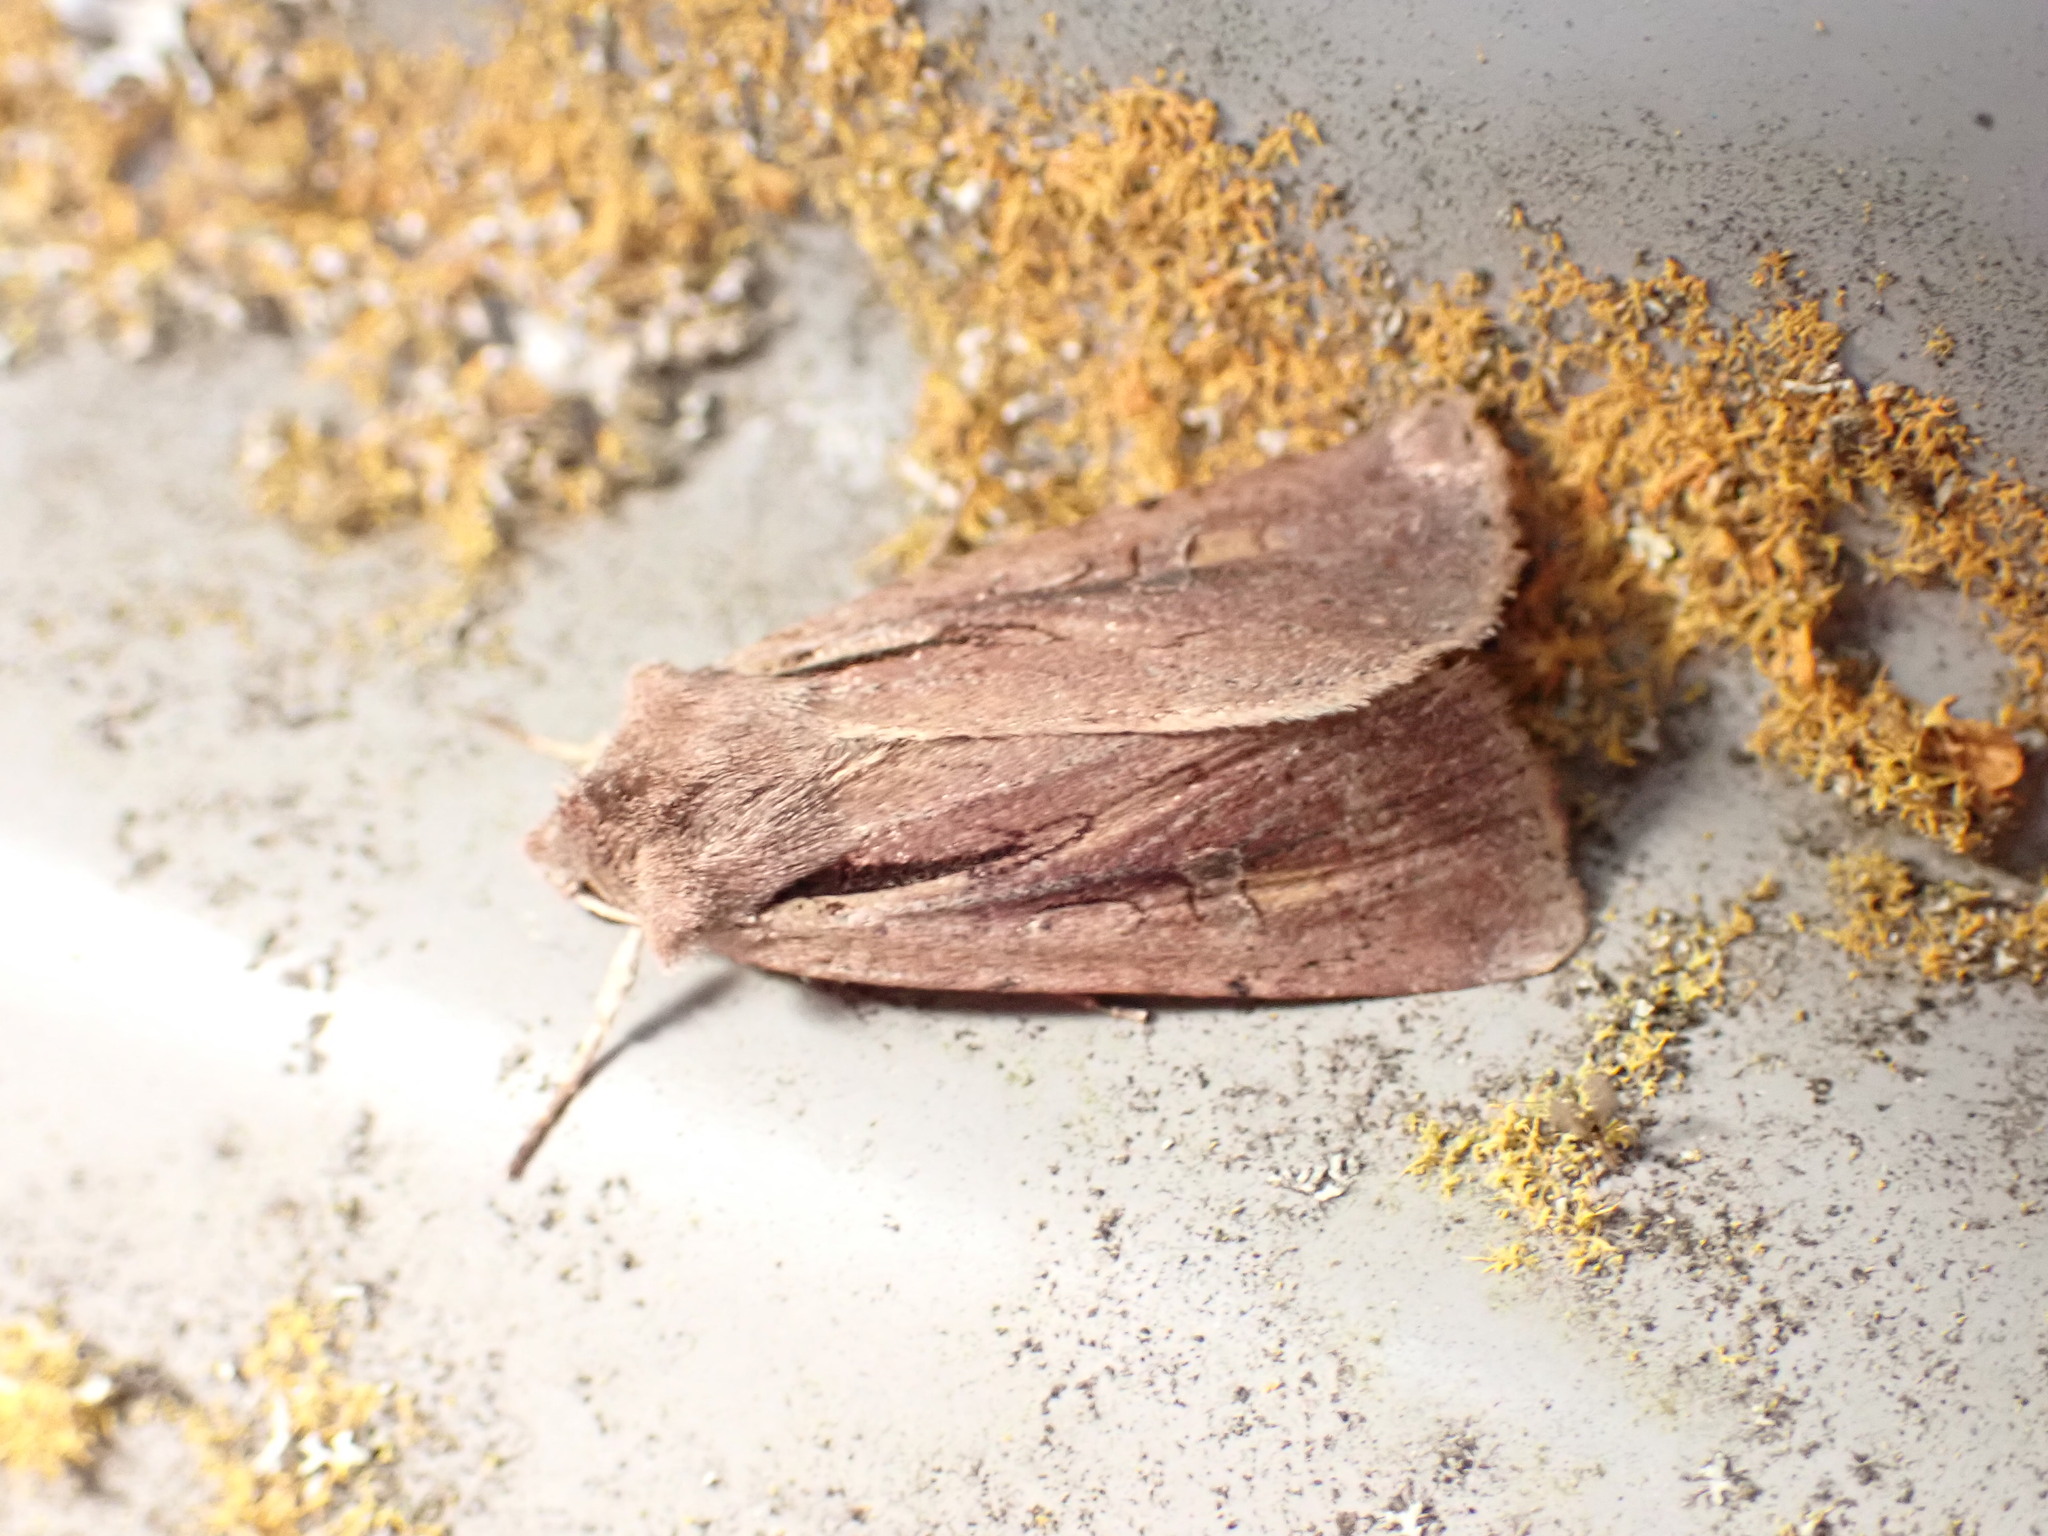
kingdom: Animalia
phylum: Arthropoda
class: Insecta
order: Lepidoptera
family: Noctuidae
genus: Ichneutica
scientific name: Ichneutica atristriga
